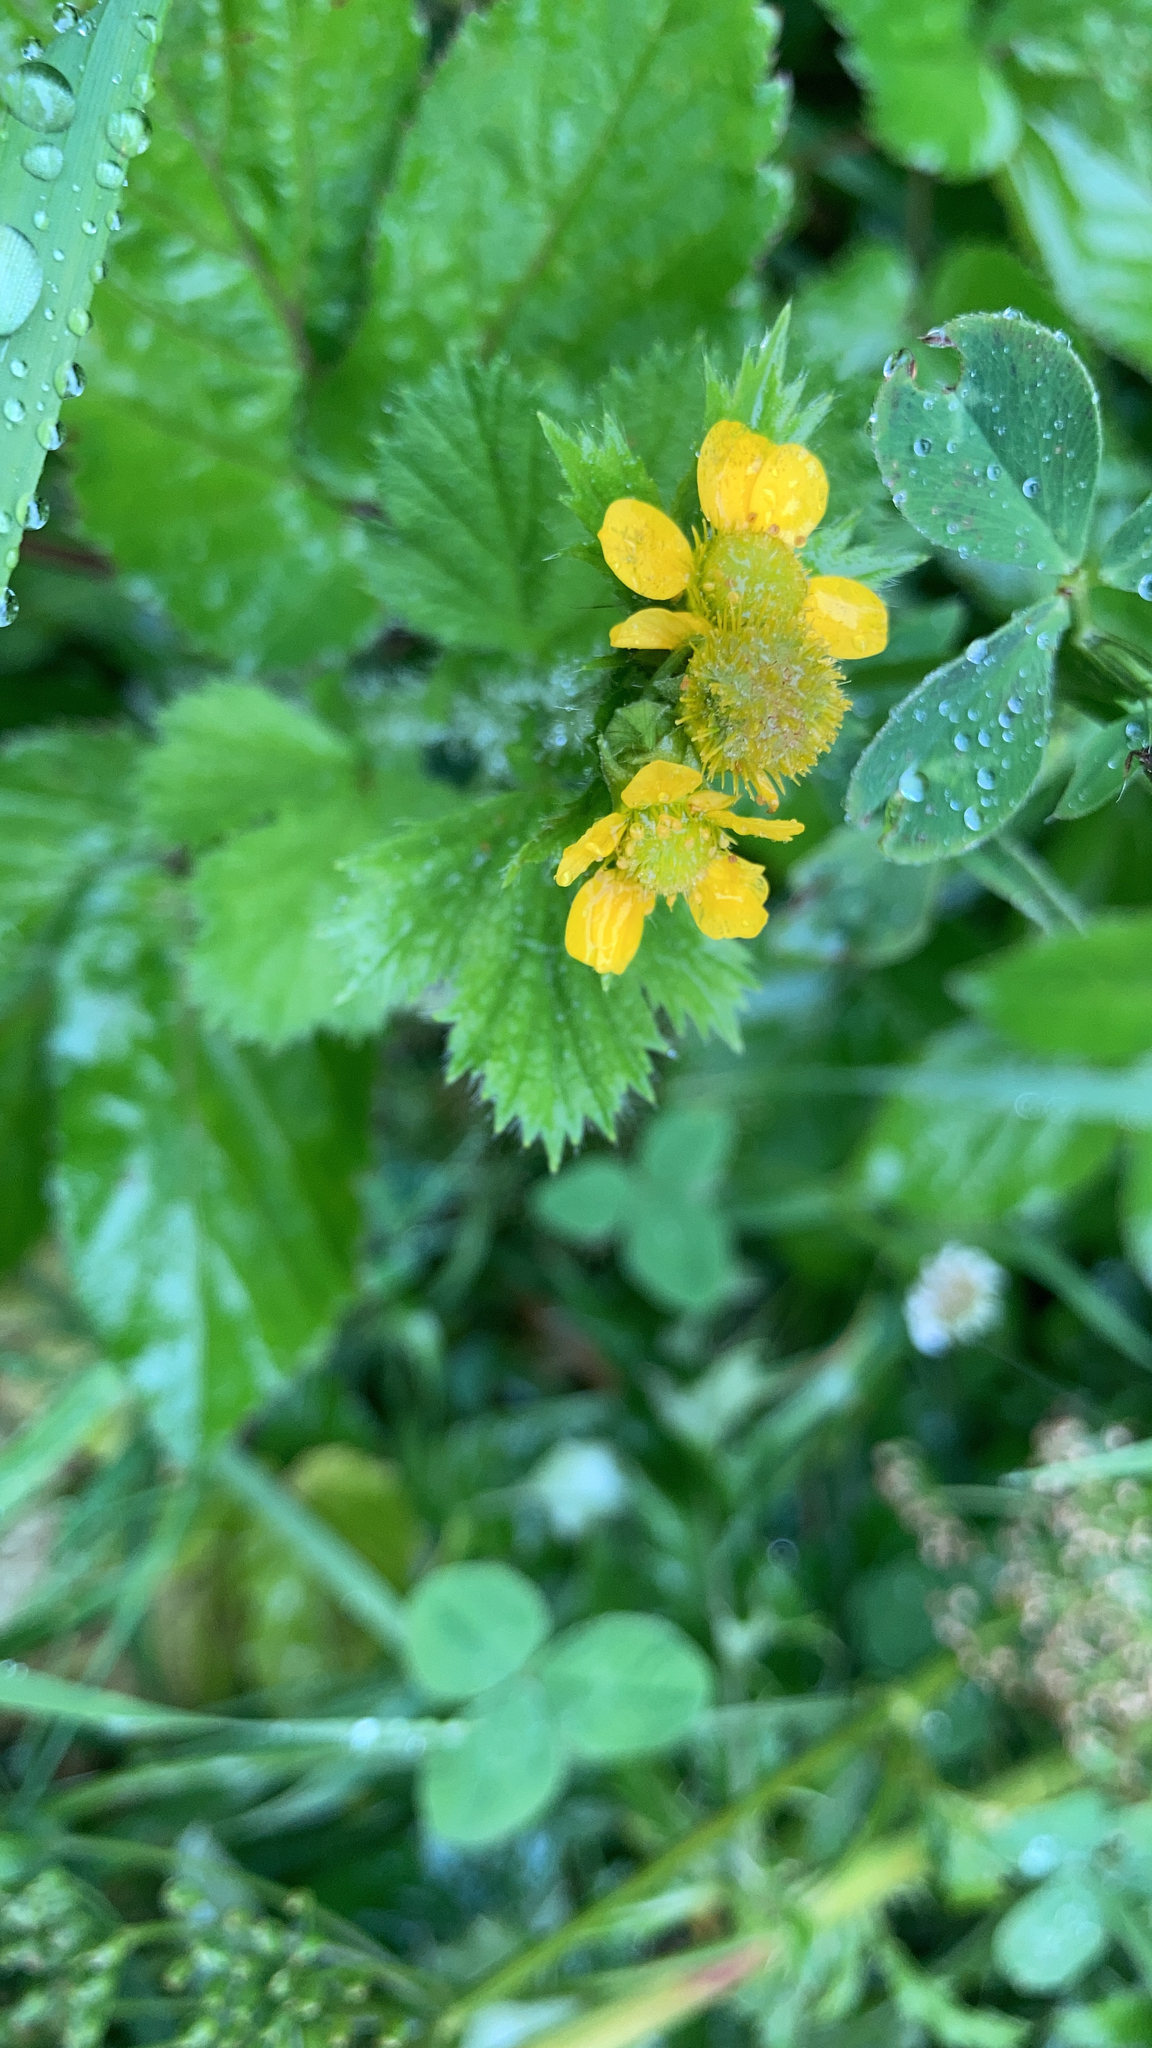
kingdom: Plantae
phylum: Tracheophyta
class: Magnoliopsida
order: Rosales
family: Rosaceae
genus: Geum
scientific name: Geum macrophyllum
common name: Large-leaved avens
